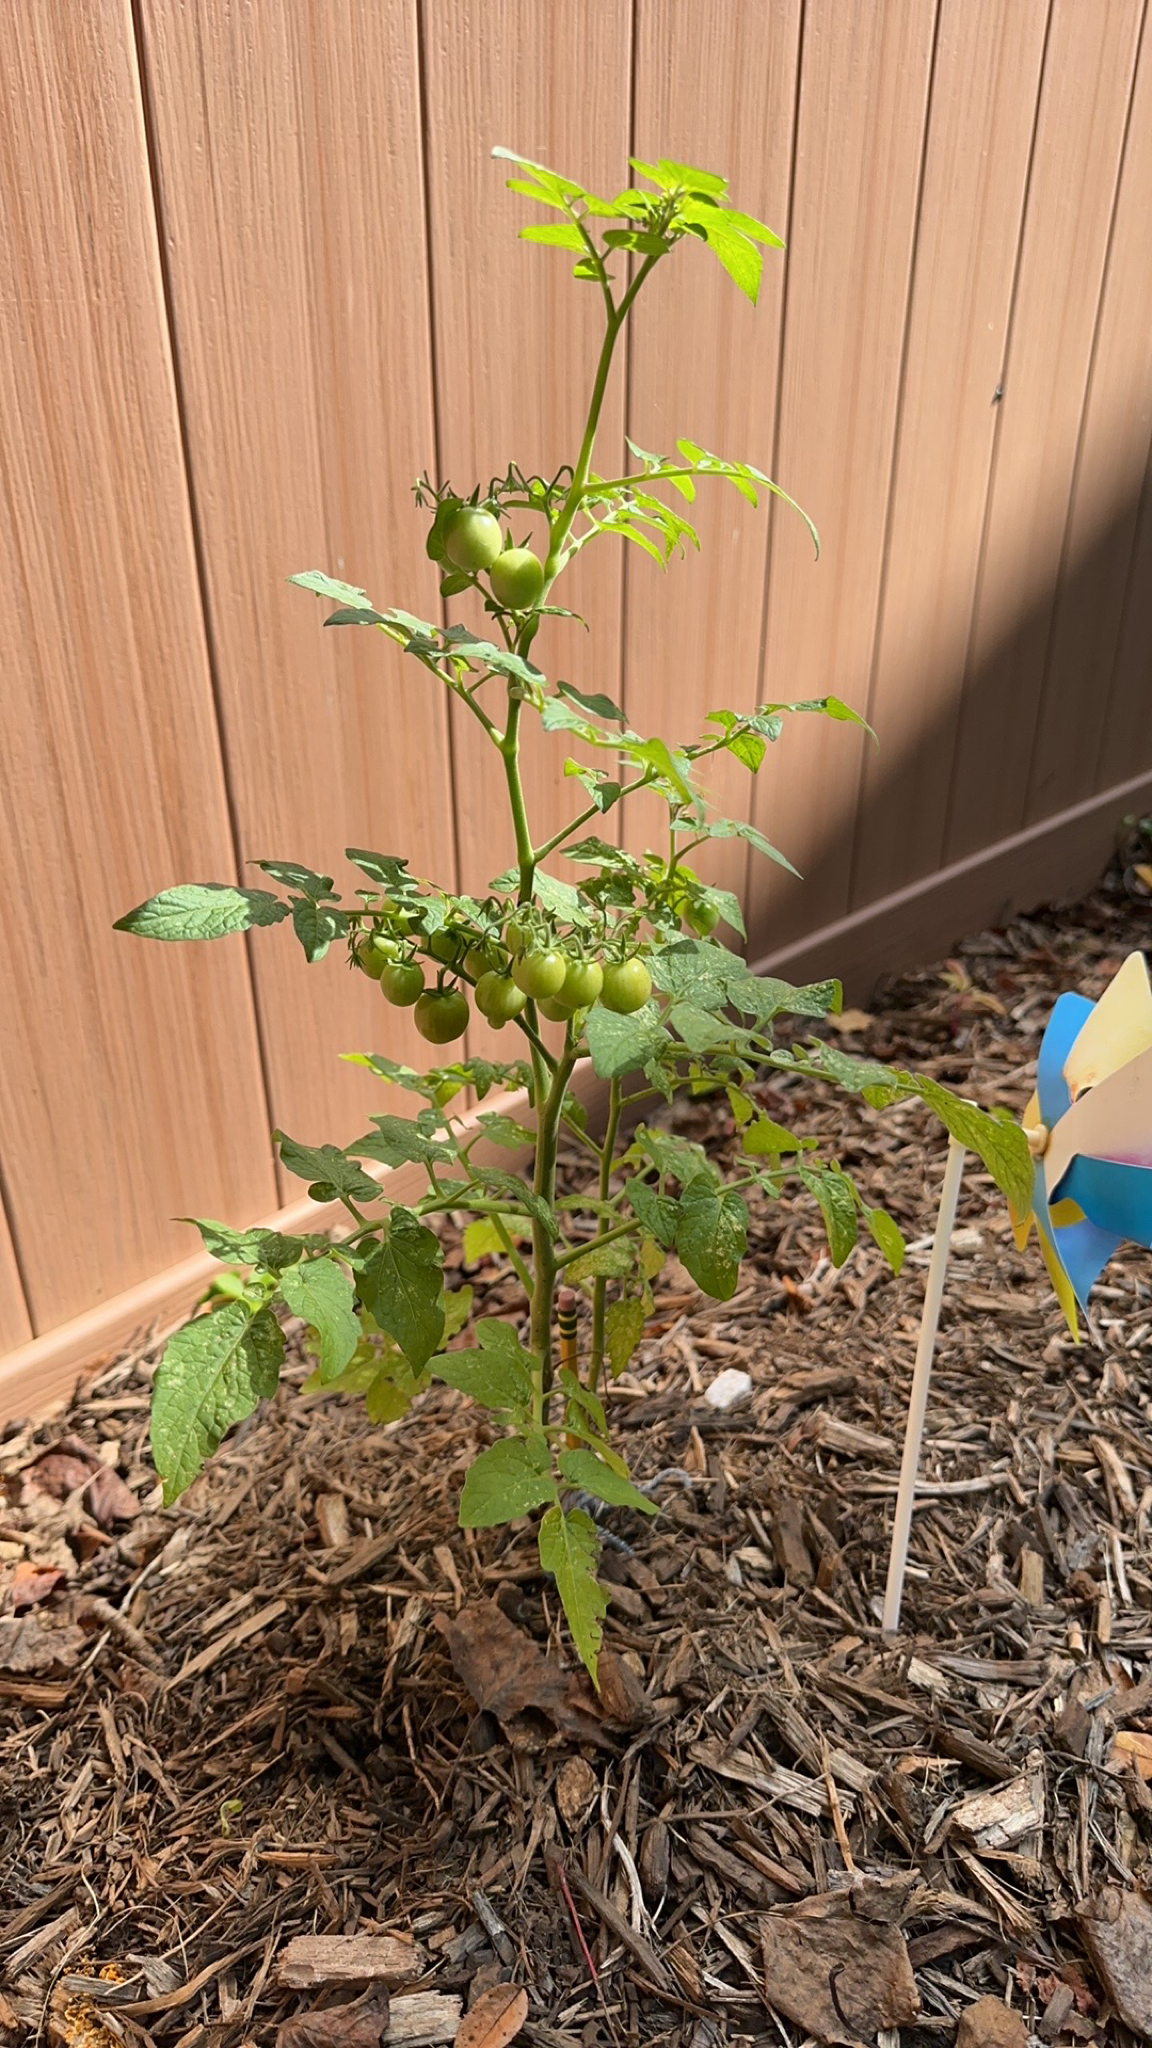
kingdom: Plantae
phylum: Tracheophyta
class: Magnoliopsida
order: Solanales
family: Solanaceae
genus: Solanum
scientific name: Solanum lycopersicum
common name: Garden tomato
